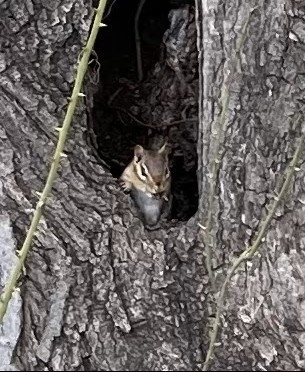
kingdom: Animalia
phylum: Chordata
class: Mammalia
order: Rodentia
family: Sciuridae
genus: Tamias
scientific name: Tamias striatus
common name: Eastern chipmunk
